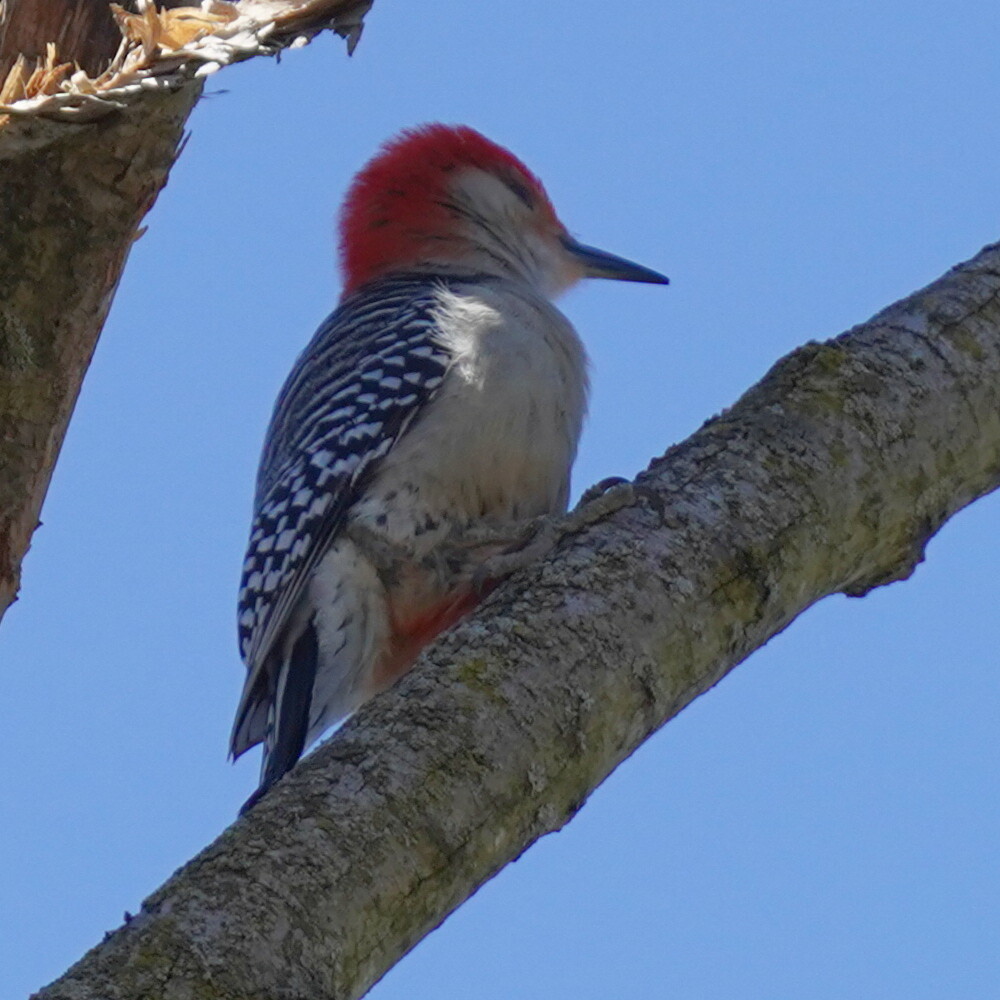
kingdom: Animalia
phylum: Chordata
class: Aves
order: Piciformes
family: Picidae
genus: Melanerpes
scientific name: Melanerpes carolinus
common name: Red-bellied woodpecker
